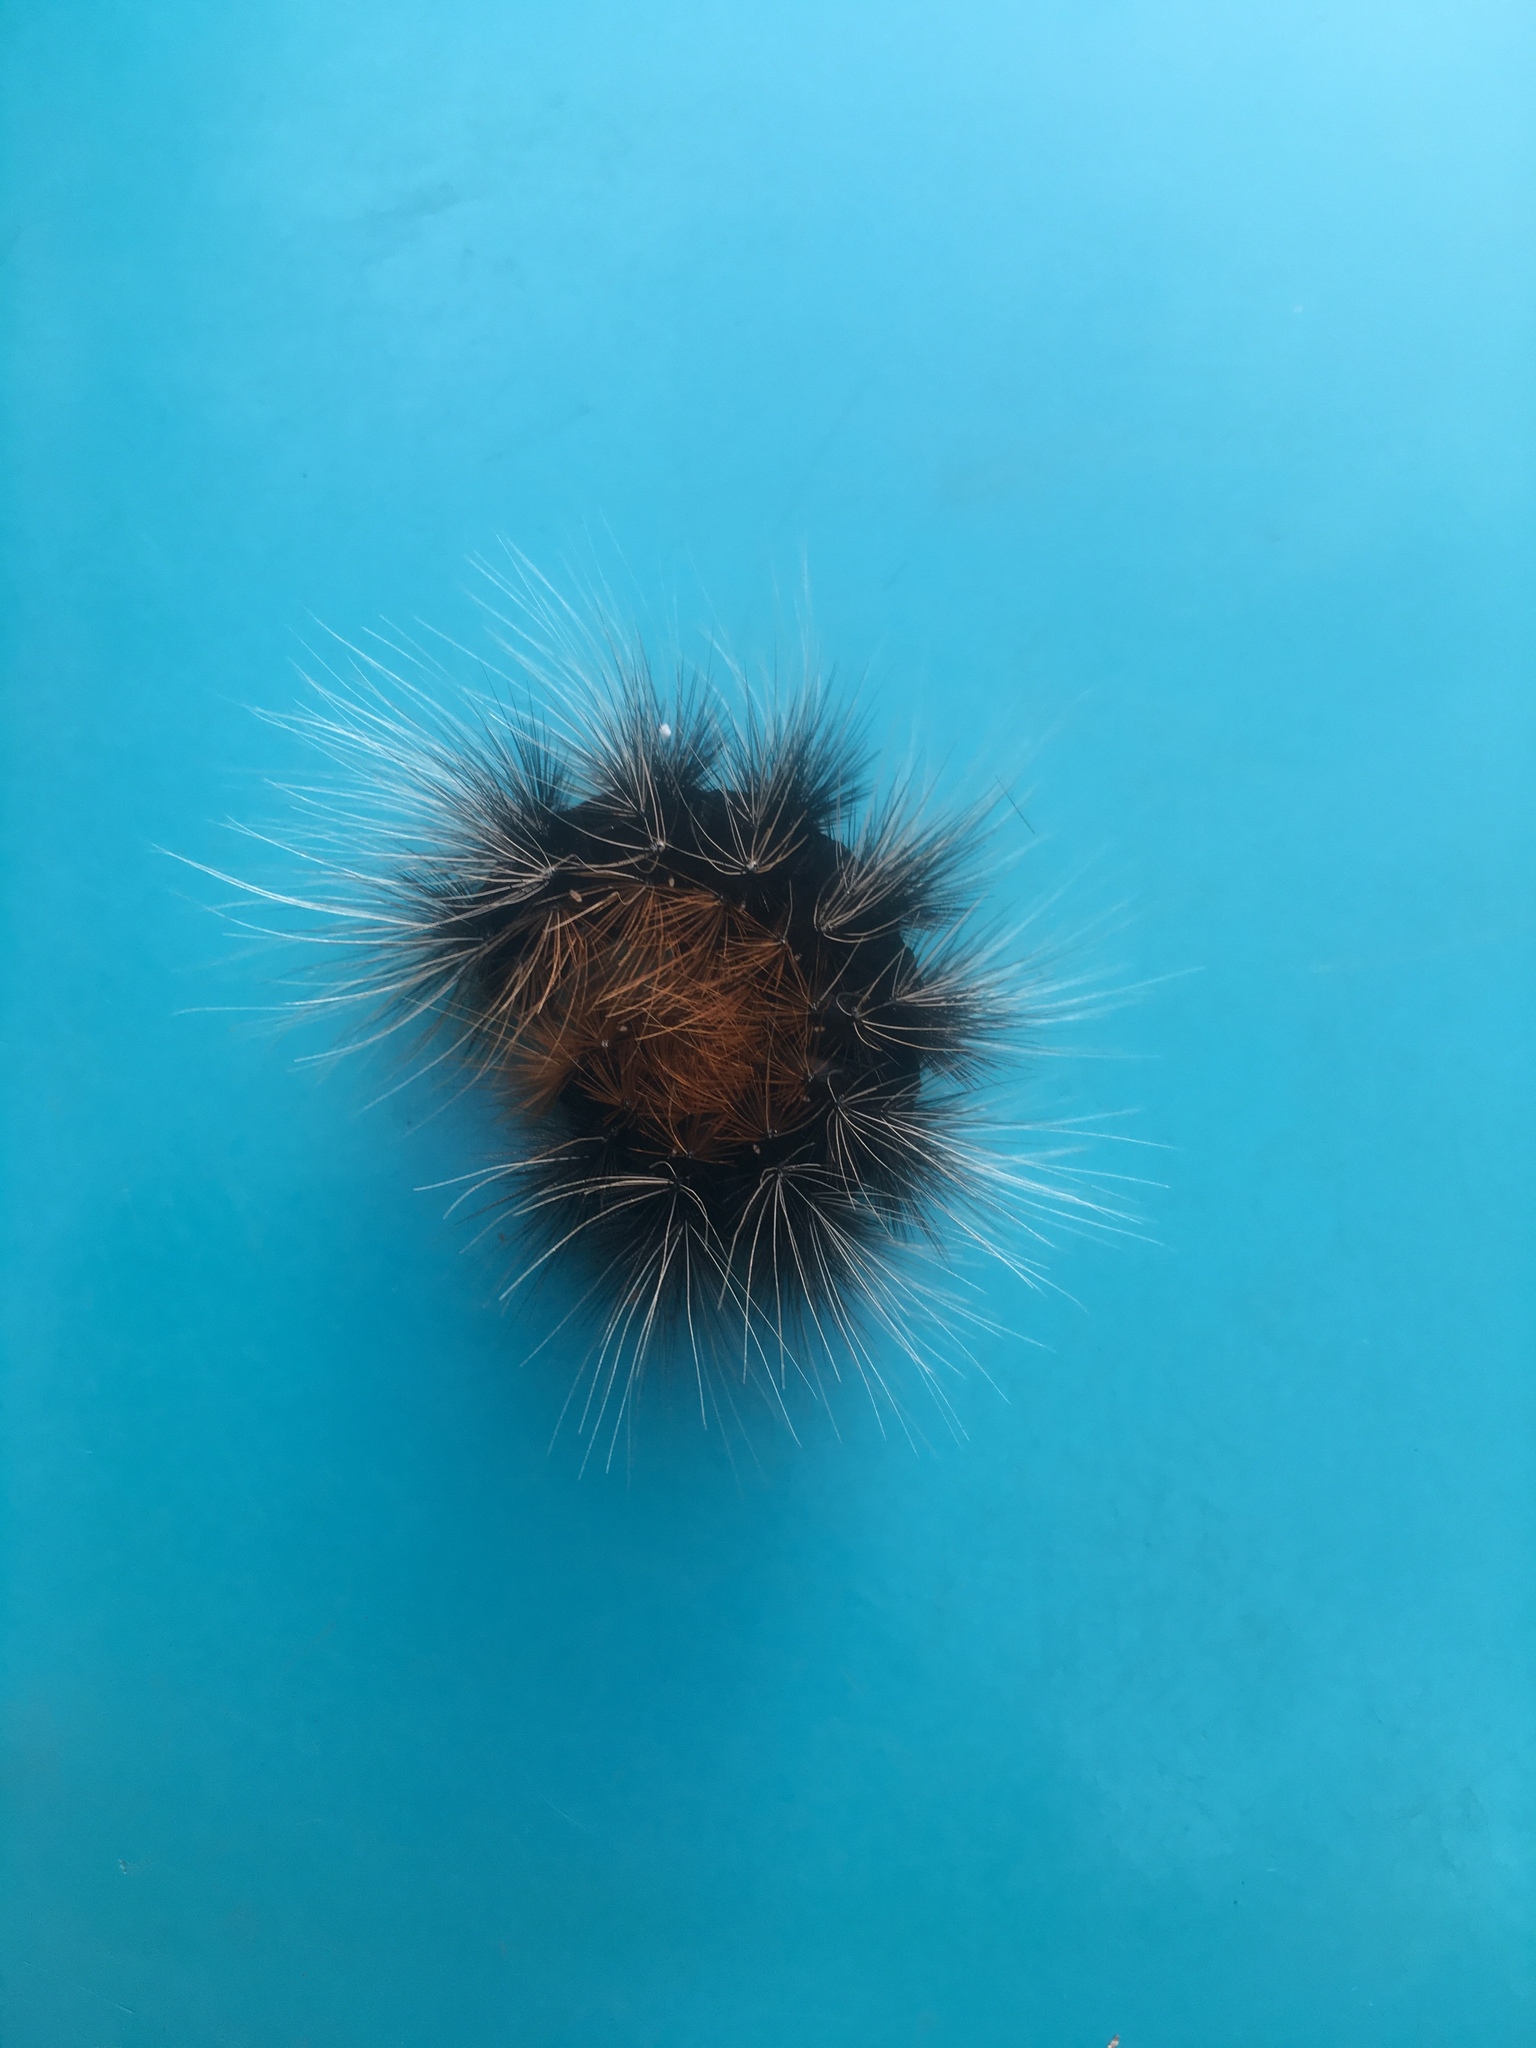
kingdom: Animalia
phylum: Arthropoda
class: Insecta
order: Lepidoptera
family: Erebidae
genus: Arctia
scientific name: Arctia caja
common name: Garden tiger
